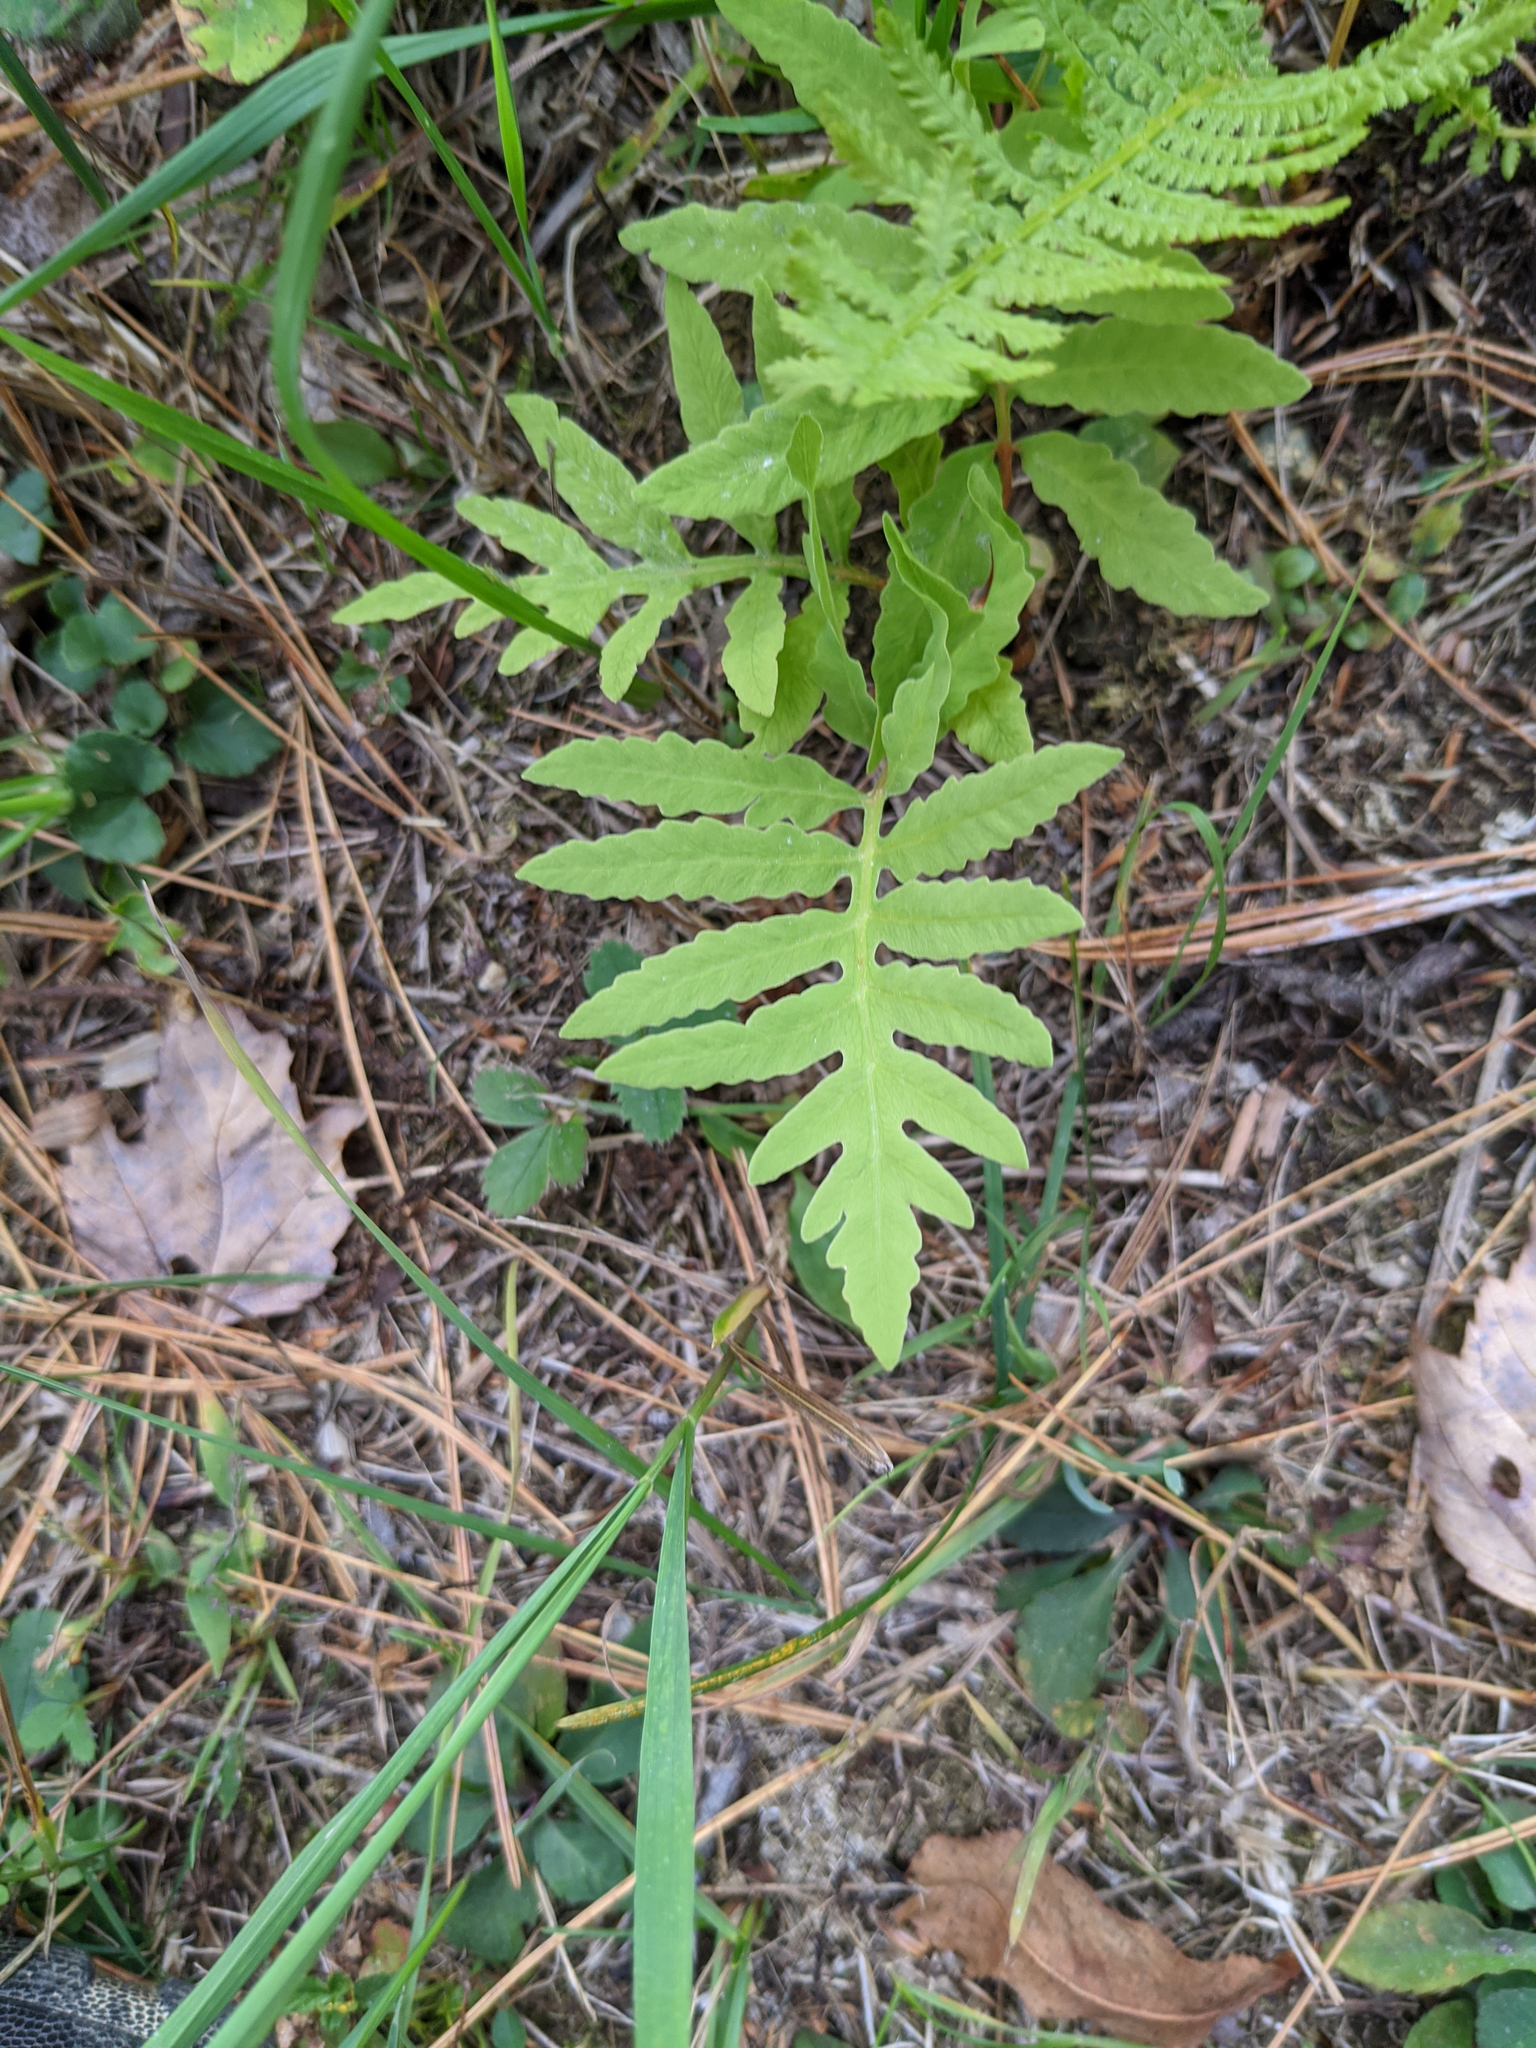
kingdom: Plantae
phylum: Tracheophyta
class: Polypodiopsida
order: Polypodiales
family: Onocleaceae
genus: Onoclea
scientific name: Onoclea sensibilis
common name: Sensitive fern
